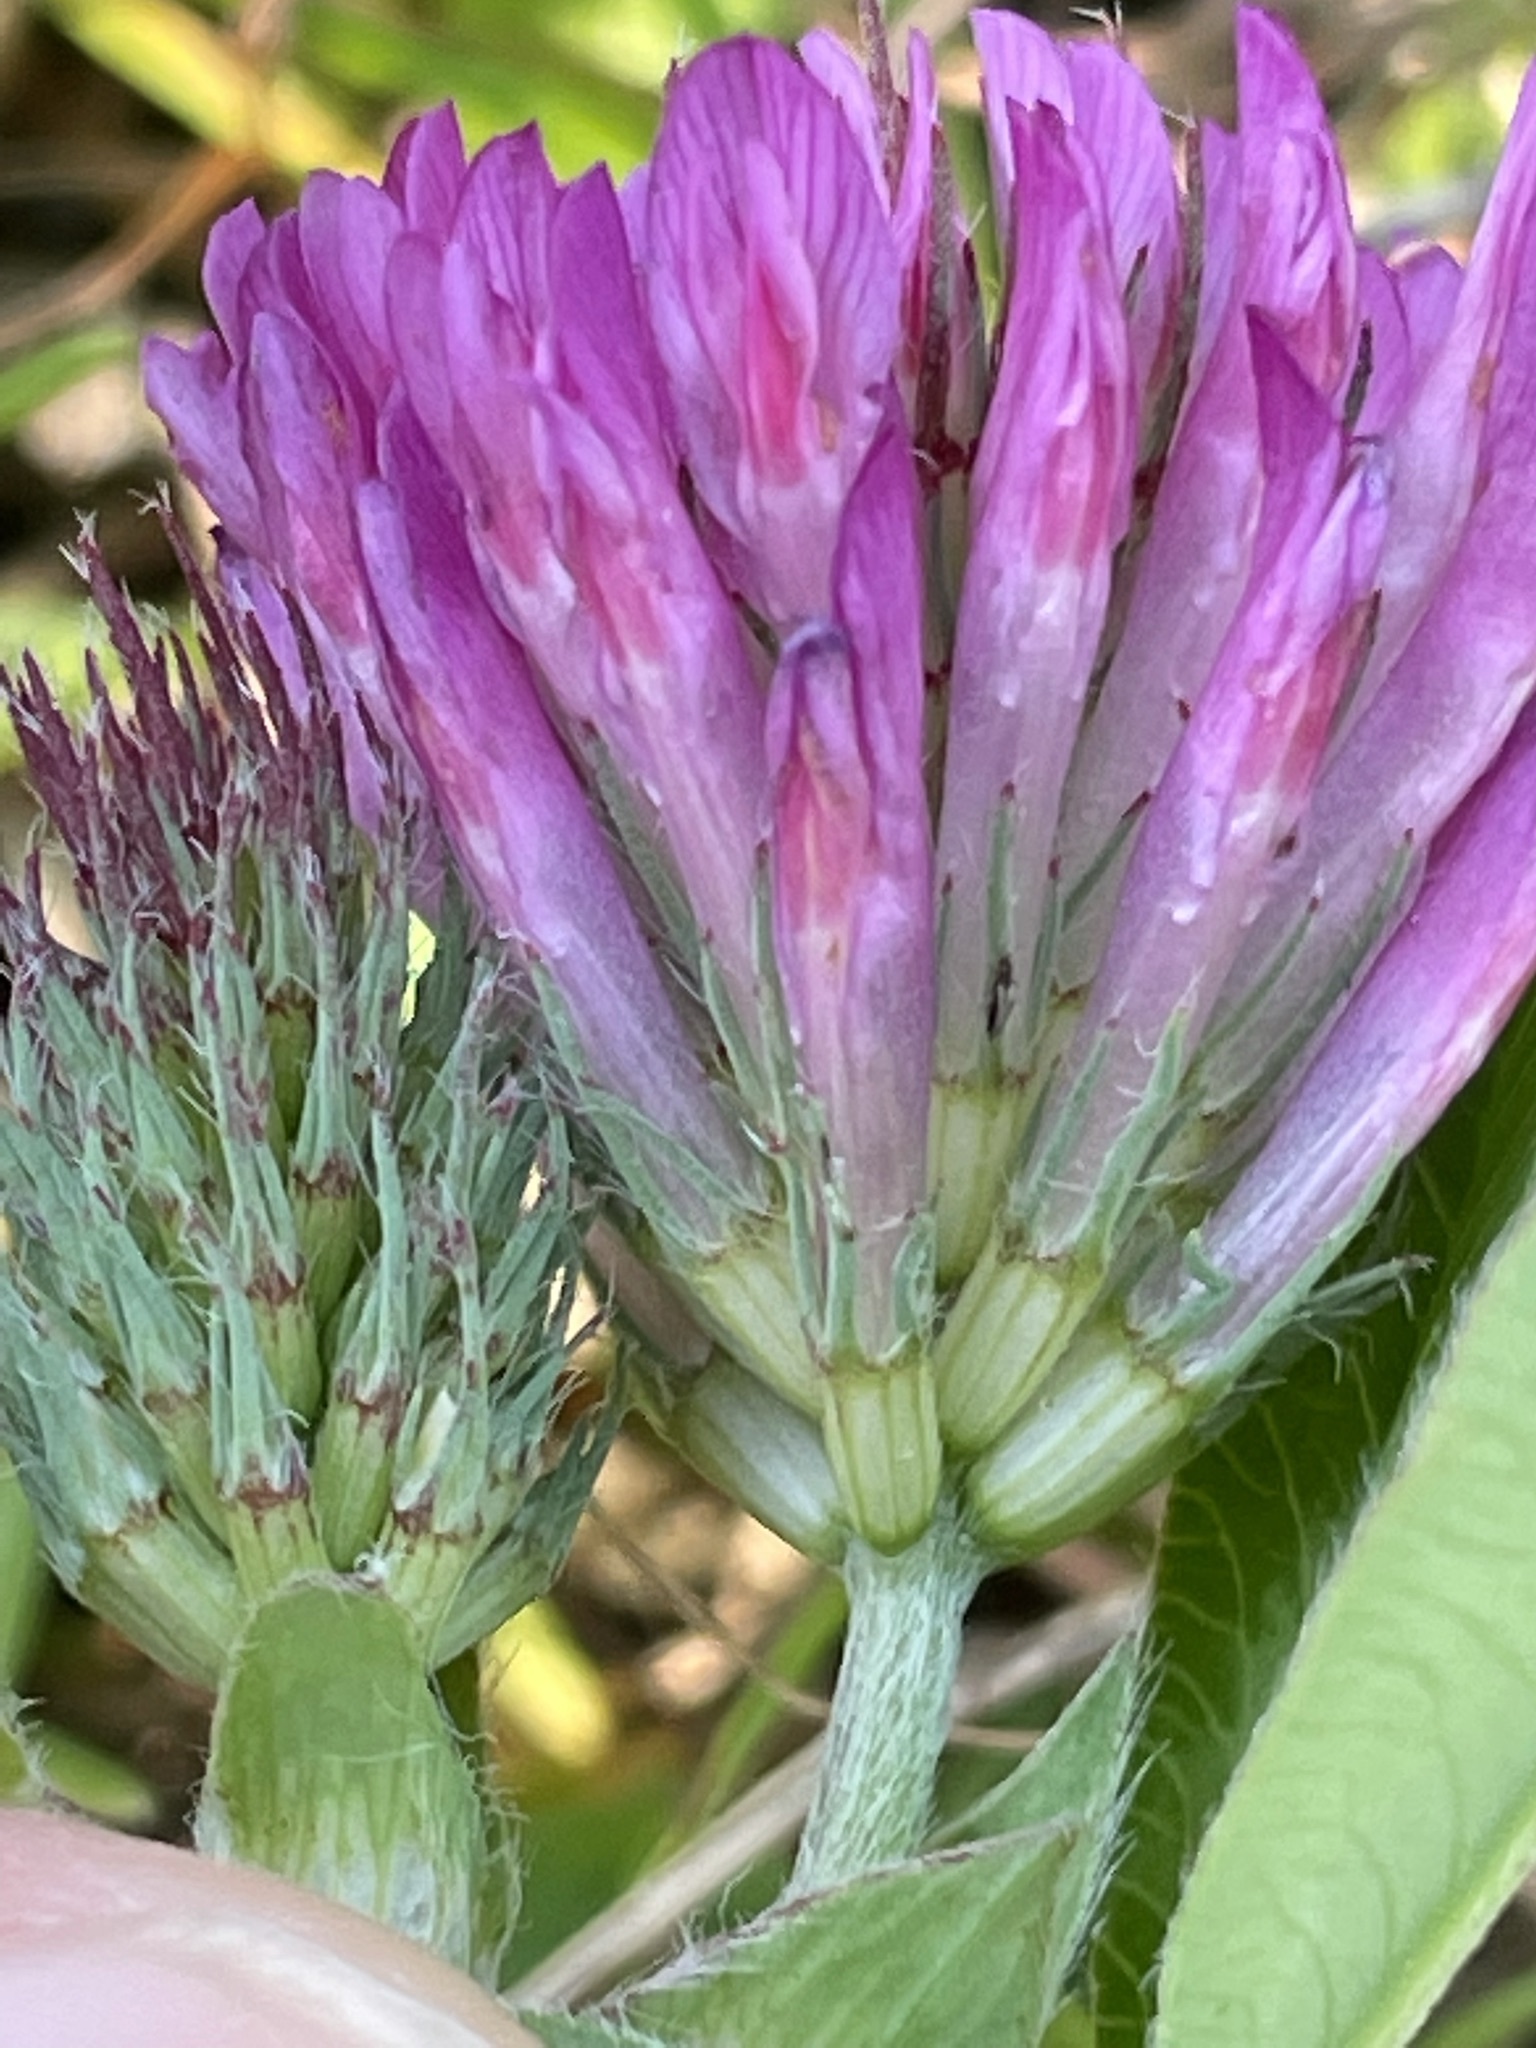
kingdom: Plantae
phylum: Tracheophyta
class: Magnoliopsida
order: Fabales
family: Fabaceae
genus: Trifolium
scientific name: Trifolium medium
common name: Zigzag clover
